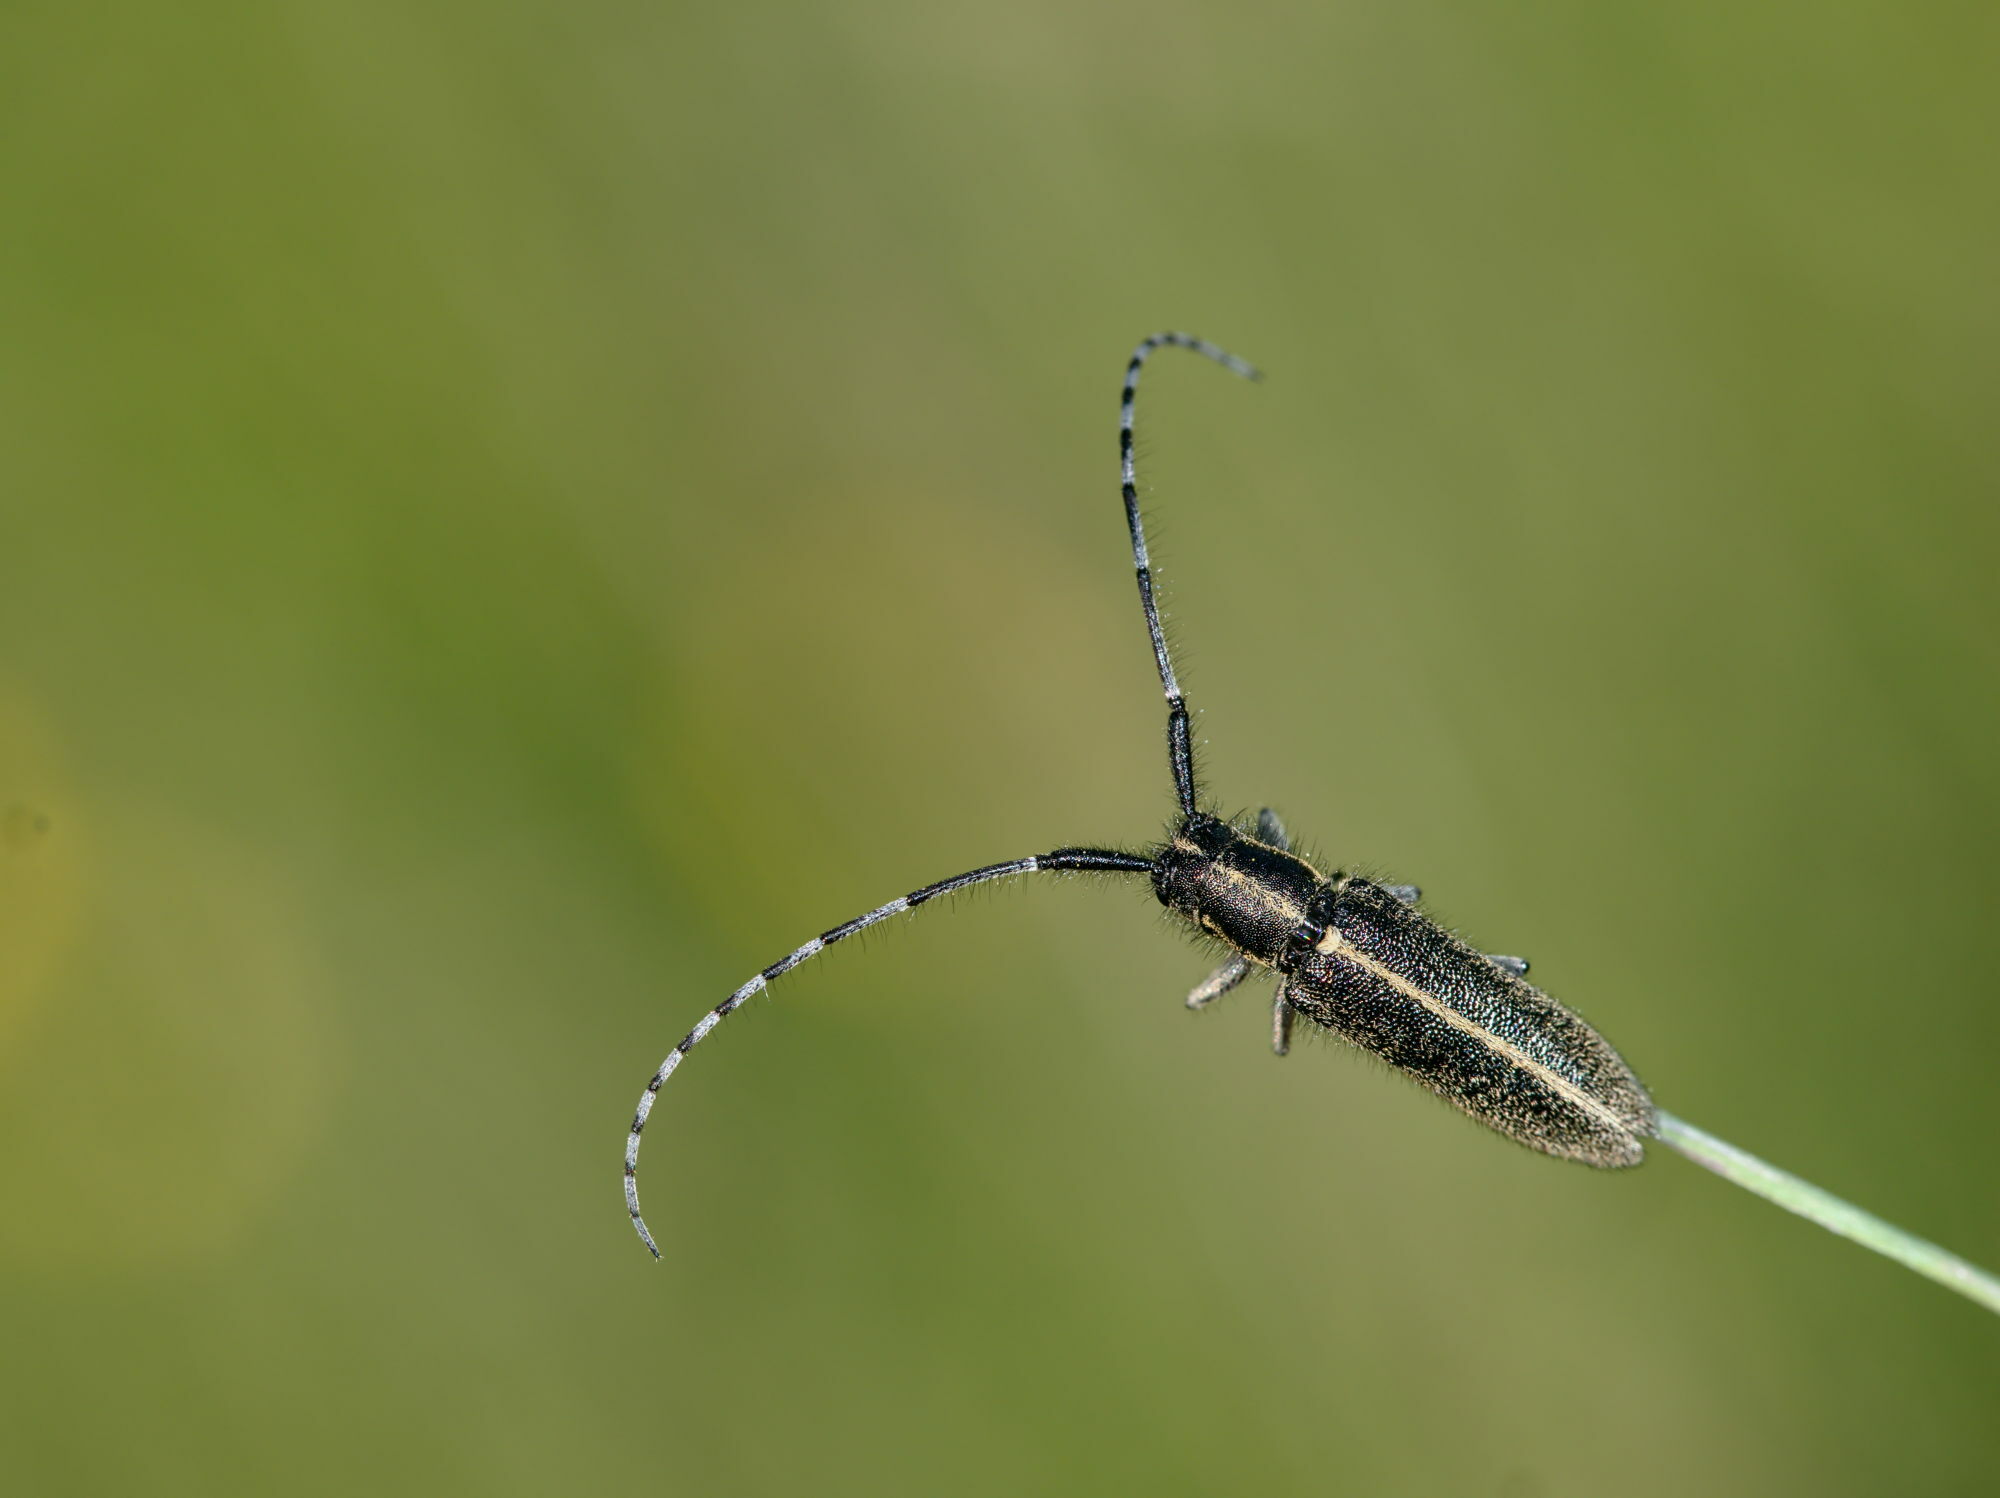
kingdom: Animalia
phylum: Arthropoda
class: Insecta
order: Coleoptera
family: Cerambycidae
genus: Agapanthia
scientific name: Agapanthia cardui
